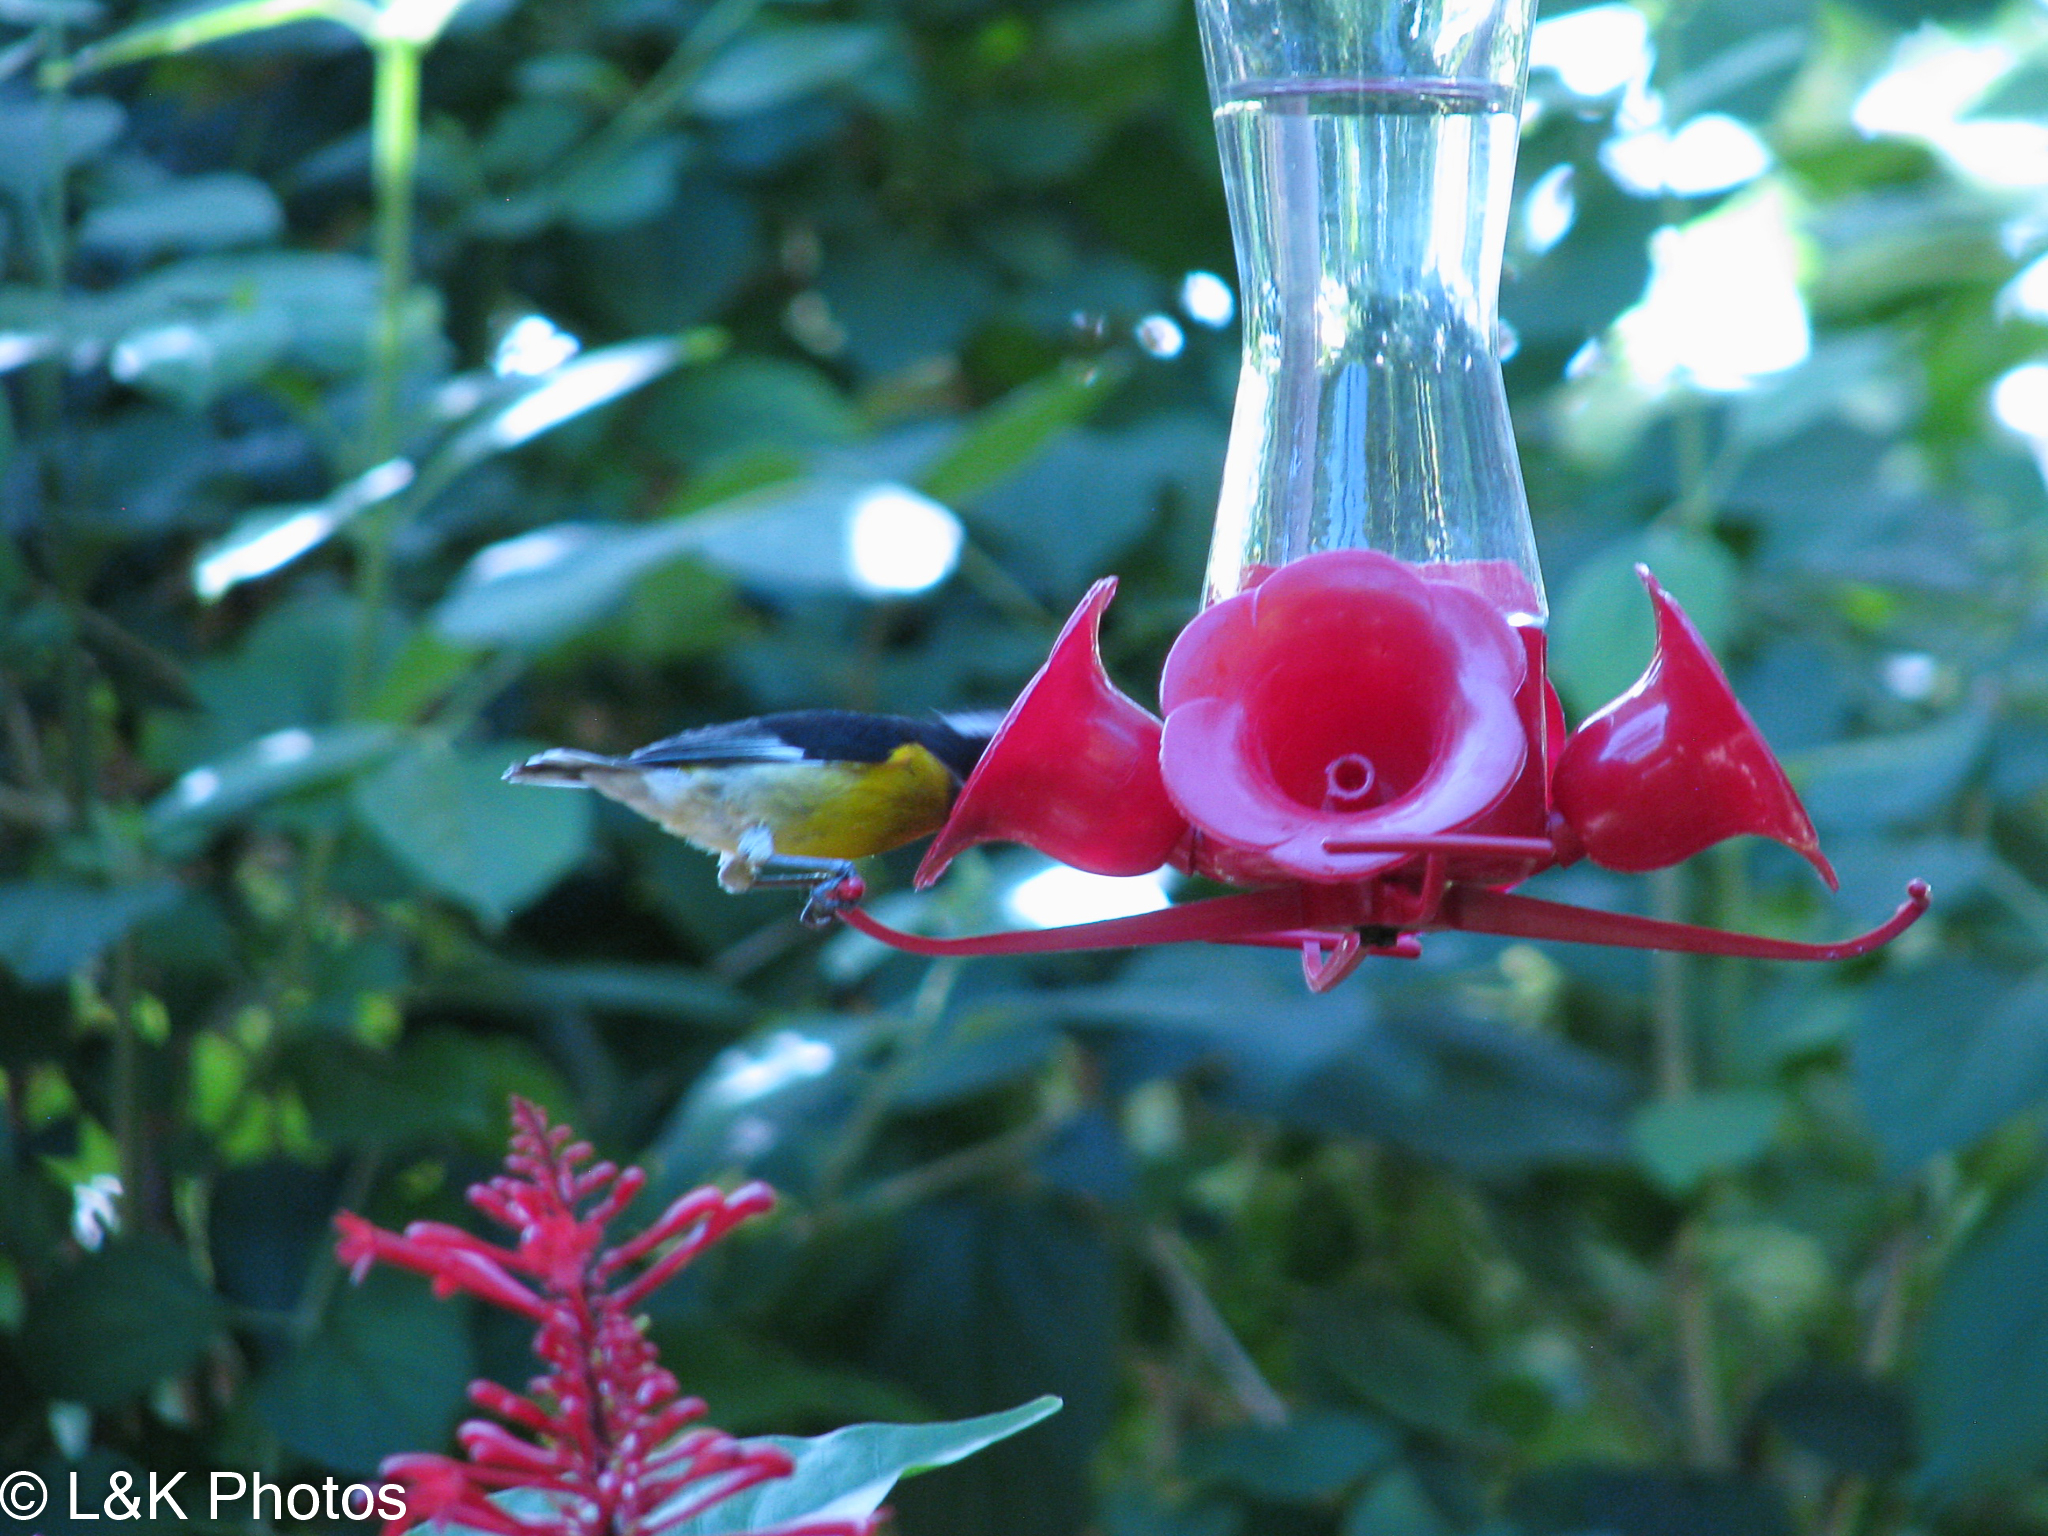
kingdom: Animalia
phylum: Chordata
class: Aves
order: Passeriformes
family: Thraupidae
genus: Coereba
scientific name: Coereba flaveola
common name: Bananaquit
